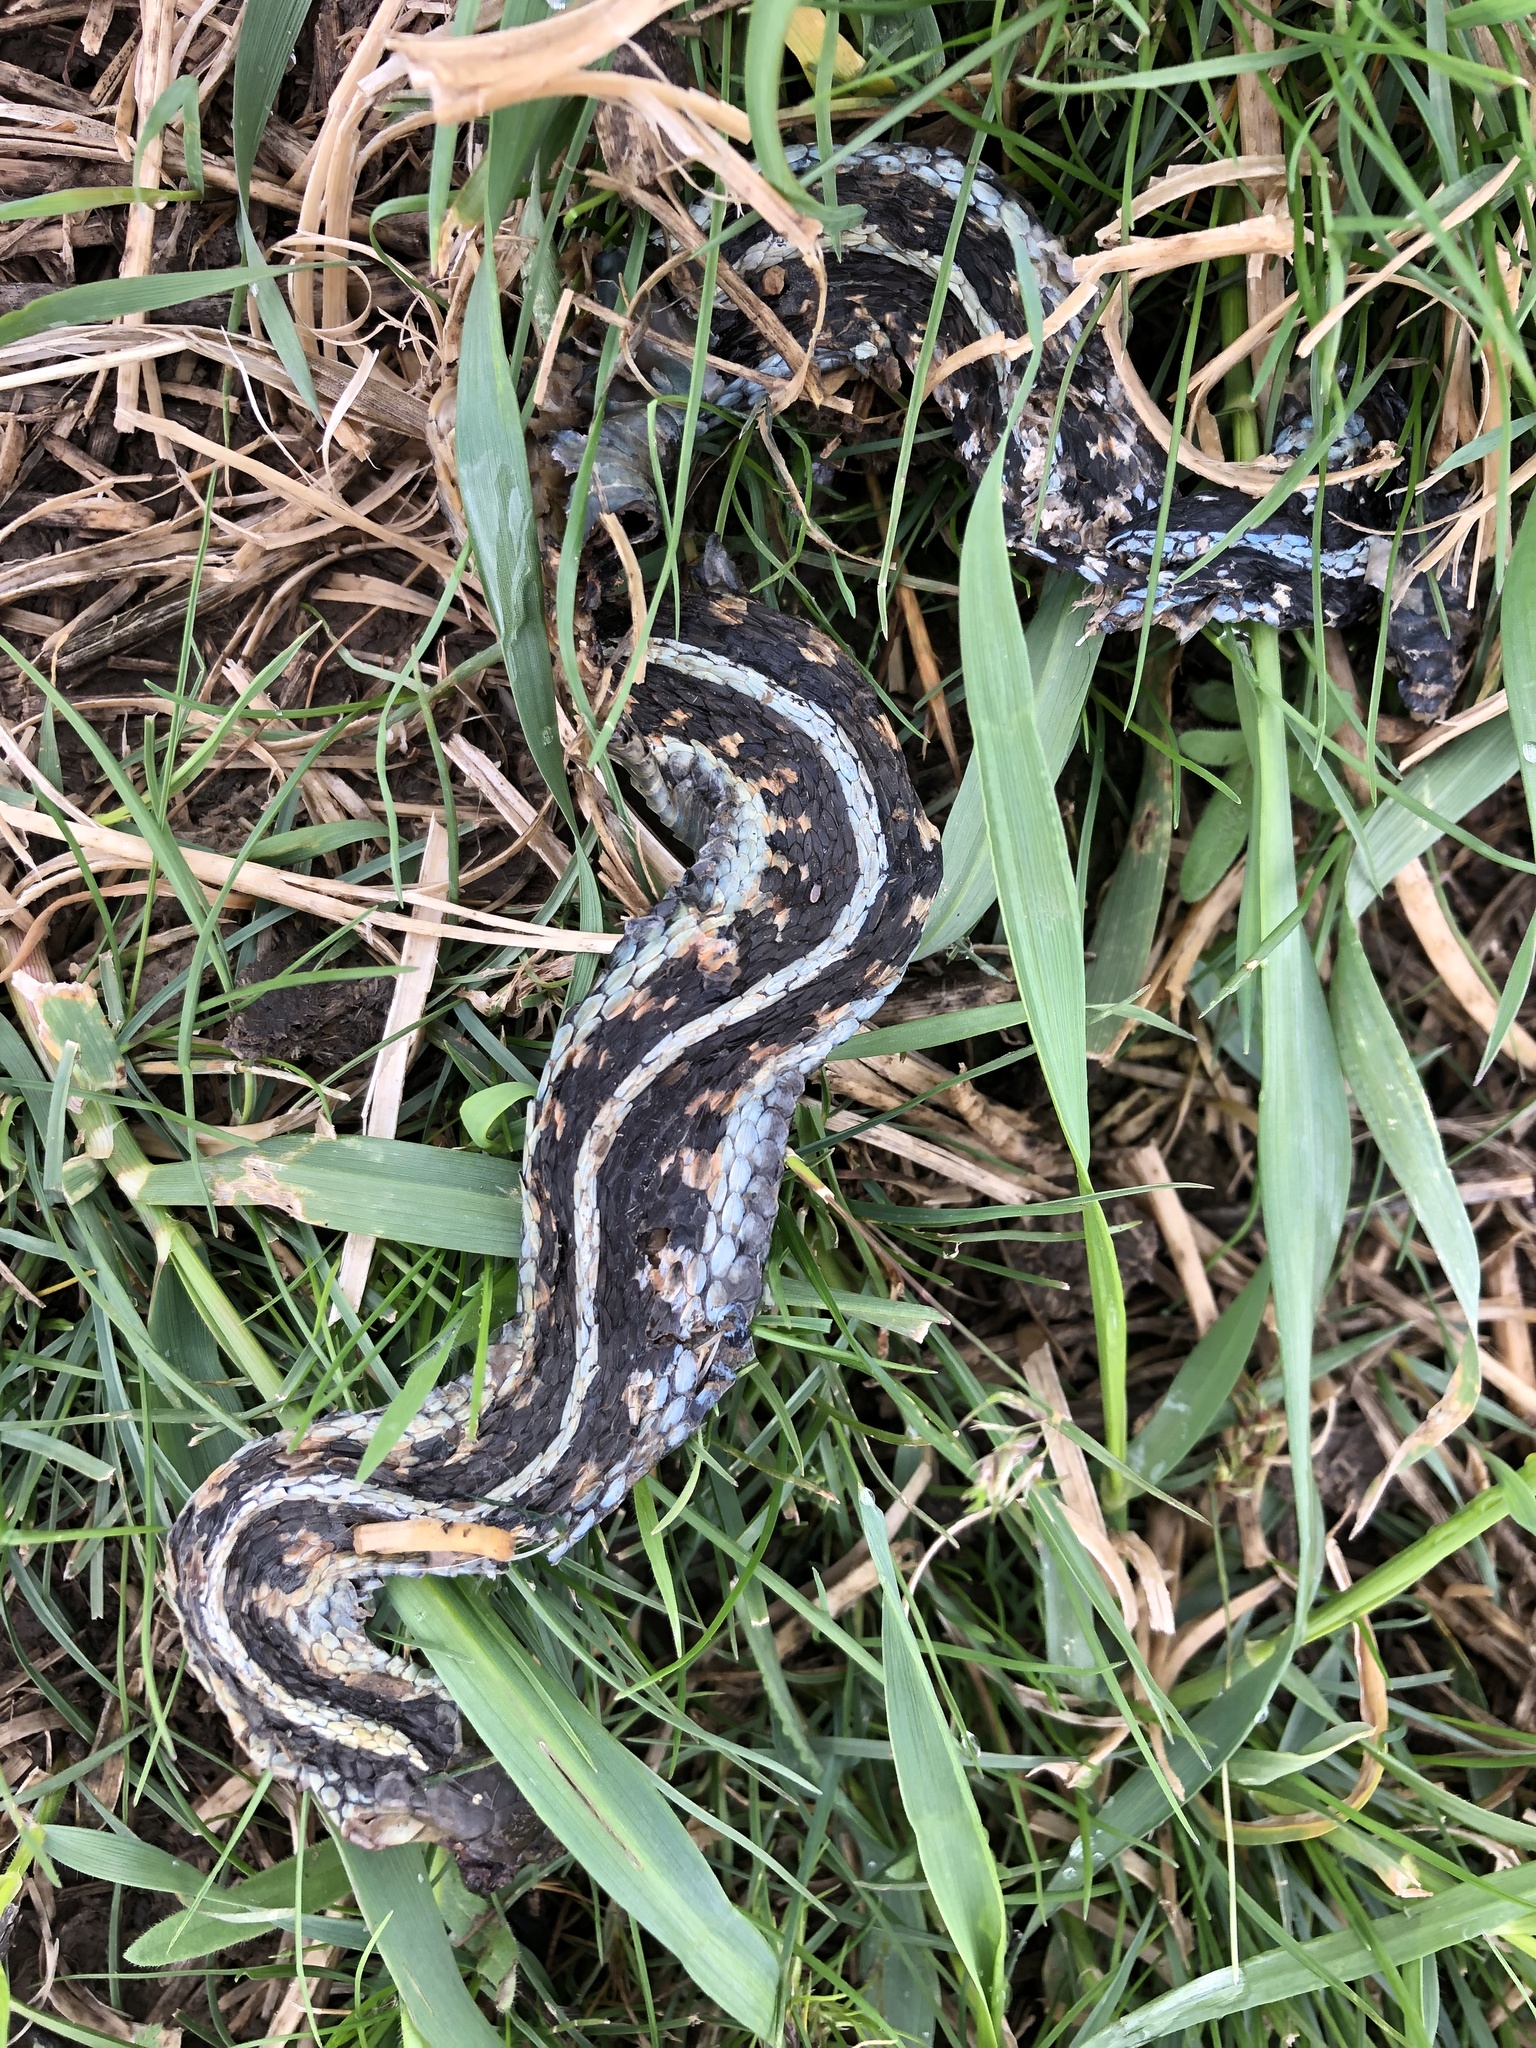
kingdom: Animalia
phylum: Chordata
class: Squamata
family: Colubridae
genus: Thamnophis
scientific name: Thamnophis sirtalis
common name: Common garter snake
